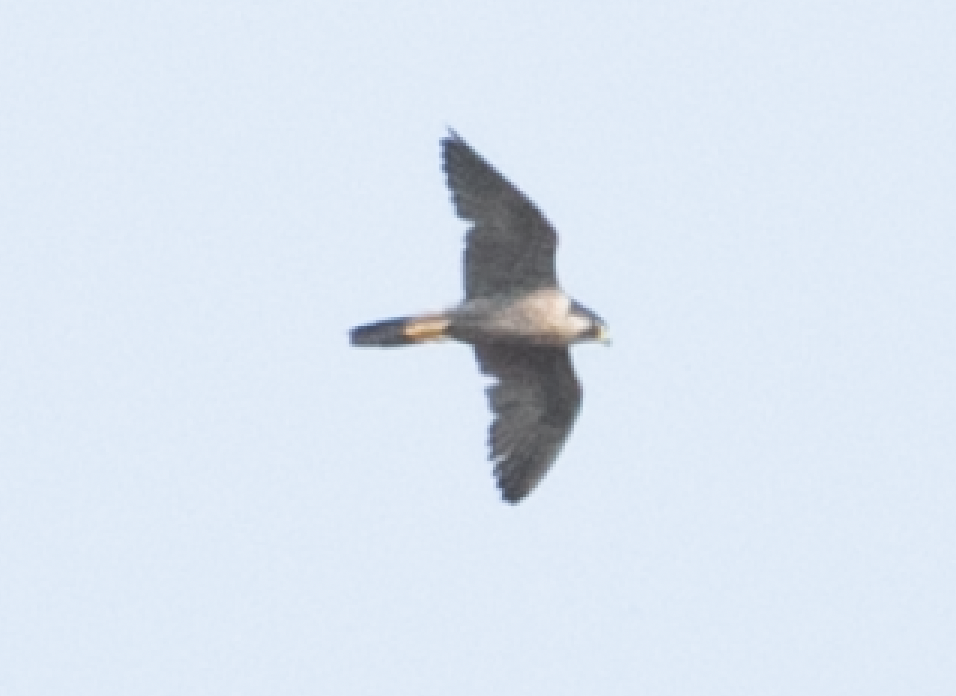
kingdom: Animalia
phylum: Chordata
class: Aves
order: Falconiformes
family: Falconidae
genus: Falco
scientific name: Falco peregrinus
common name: Peregrine falcon
